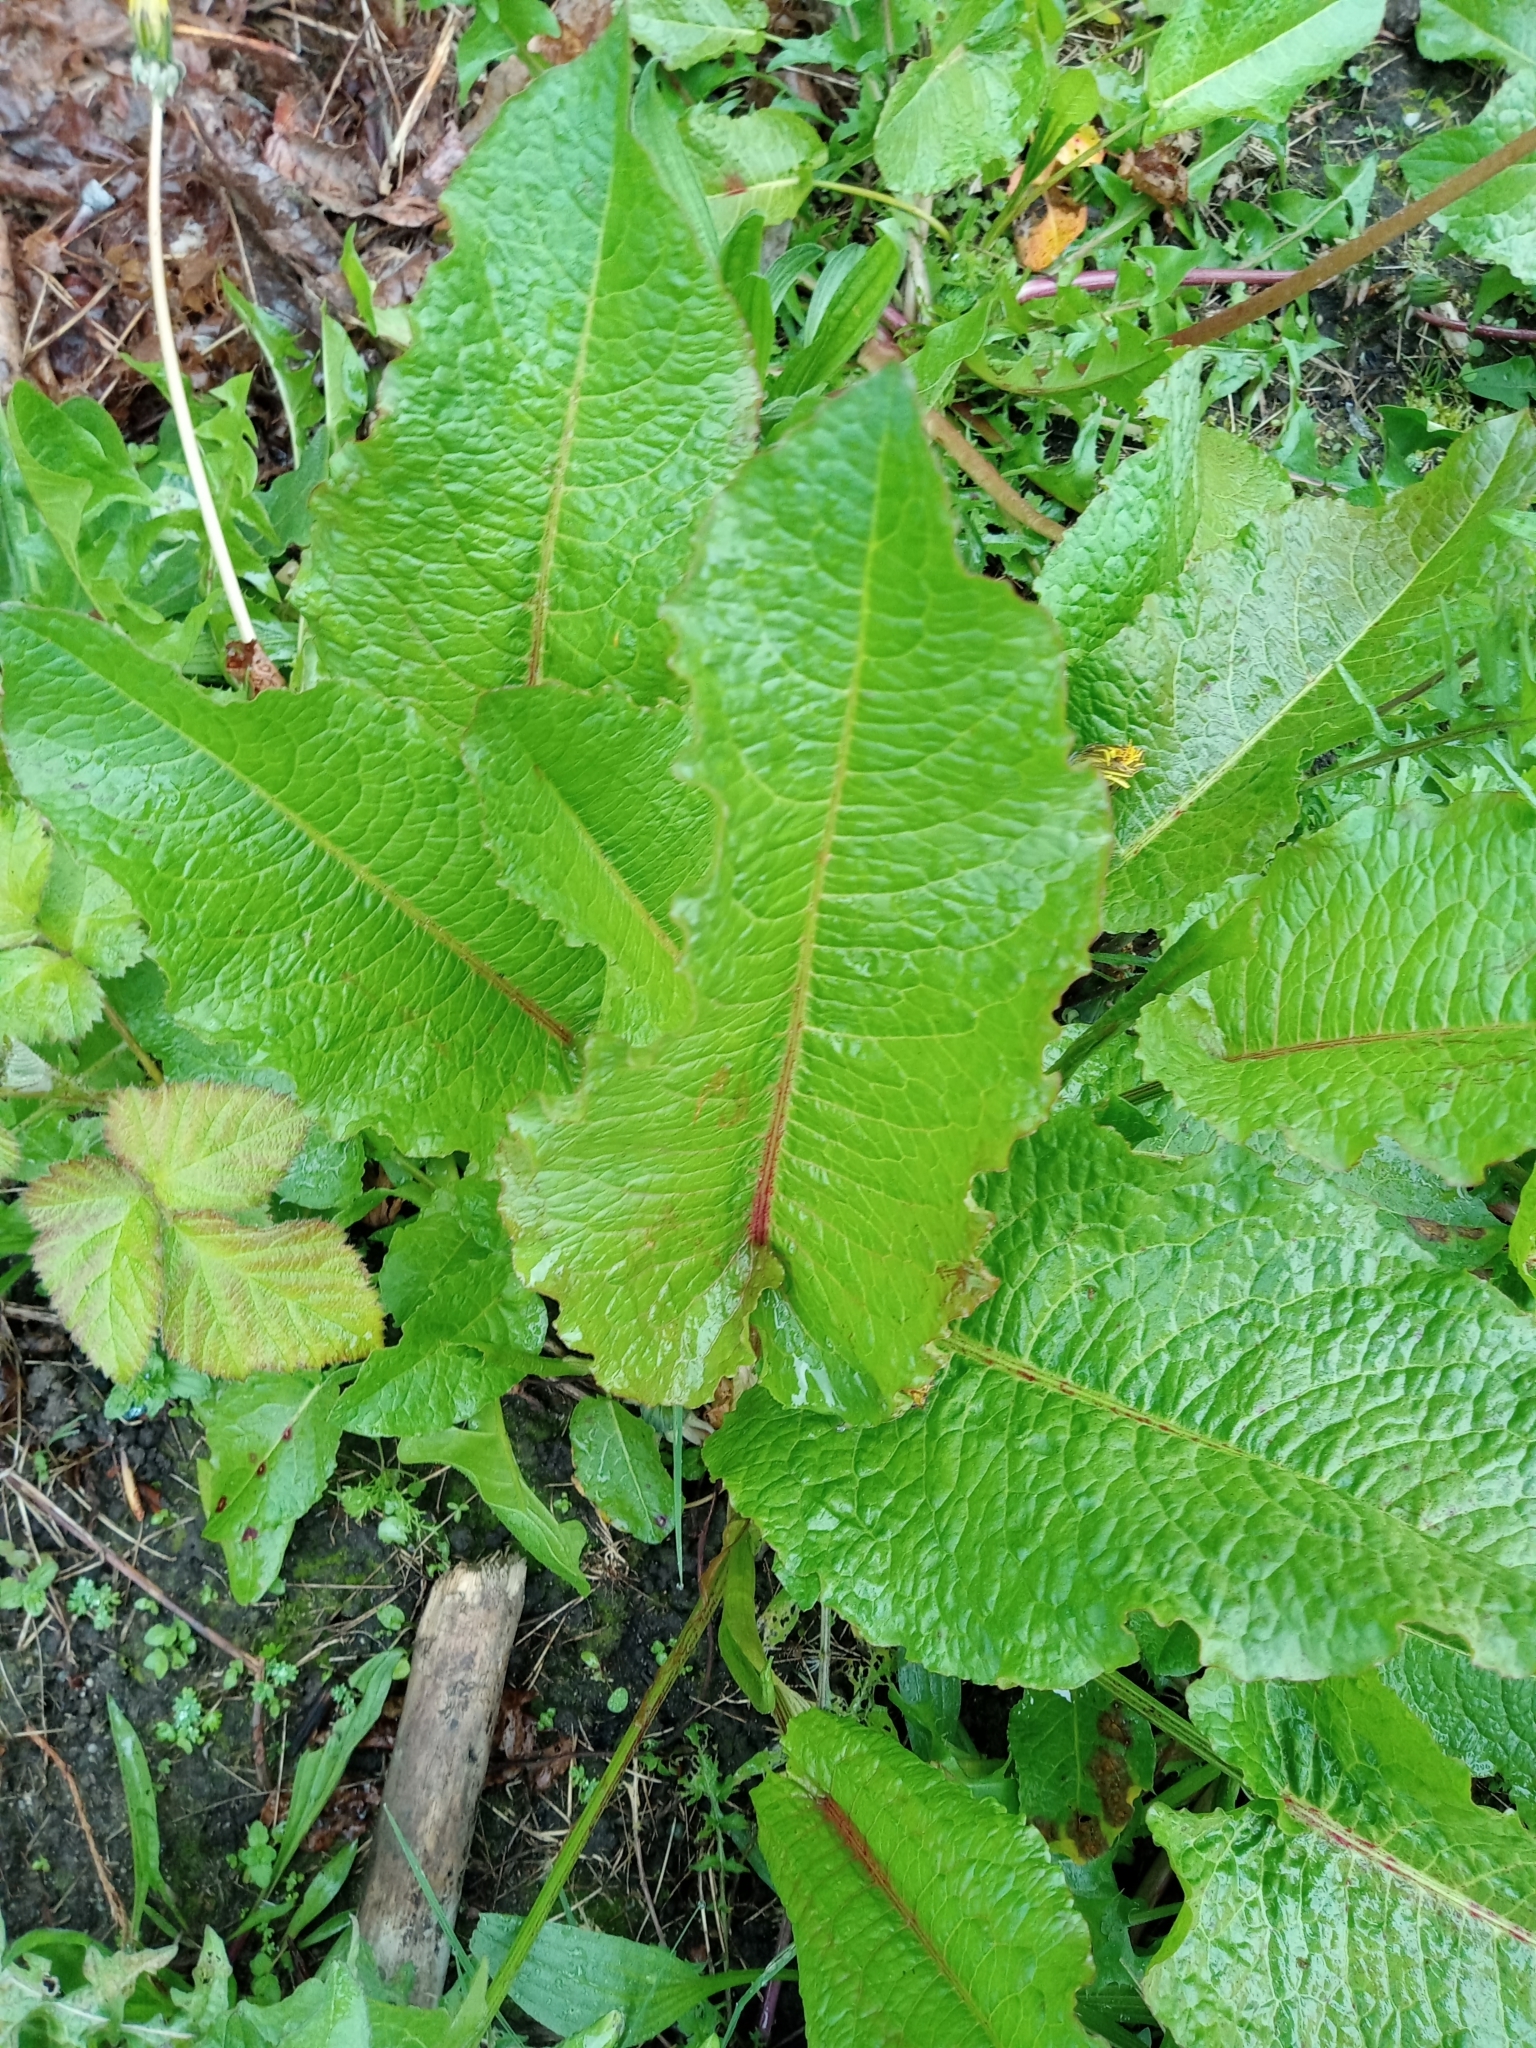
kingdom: Plantae
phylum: Tracheophyta
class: Magnoliopsida
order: Caryophyllales
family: Polygonaceae
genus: Rumex
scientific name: Rumex obtusifolius
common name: Bitter dock
